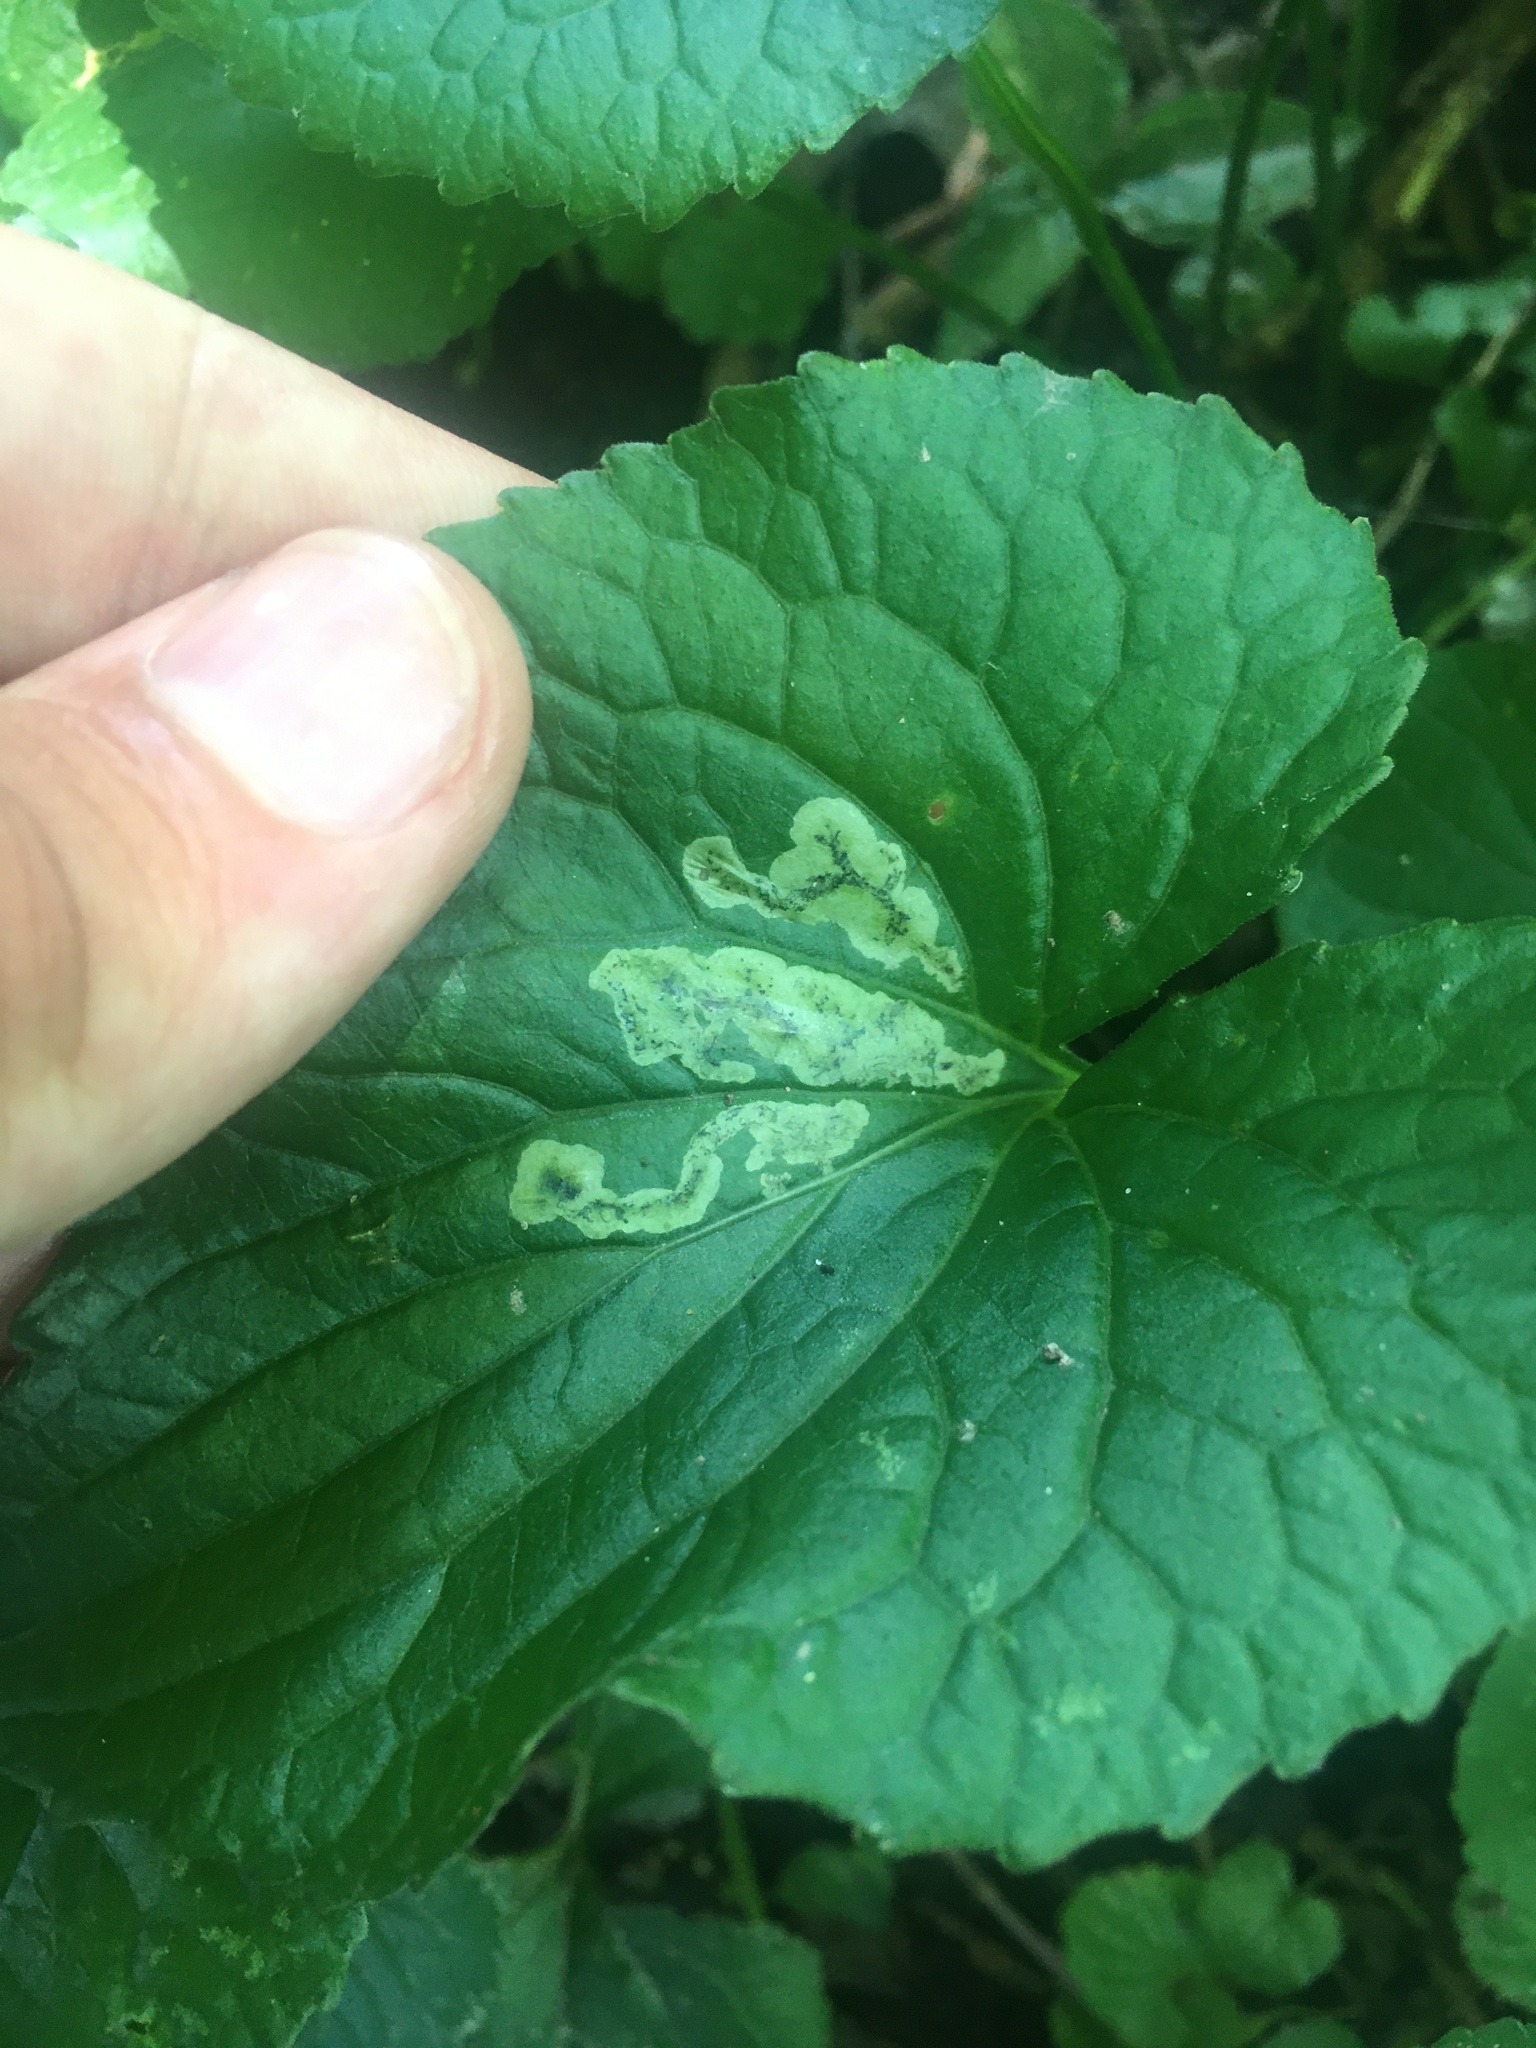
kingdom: Animalia
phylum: Arthropoda
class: Insecta
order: Diptera
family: Agromyzidae
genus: Liriomyza
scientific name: Liriomyza violivora
